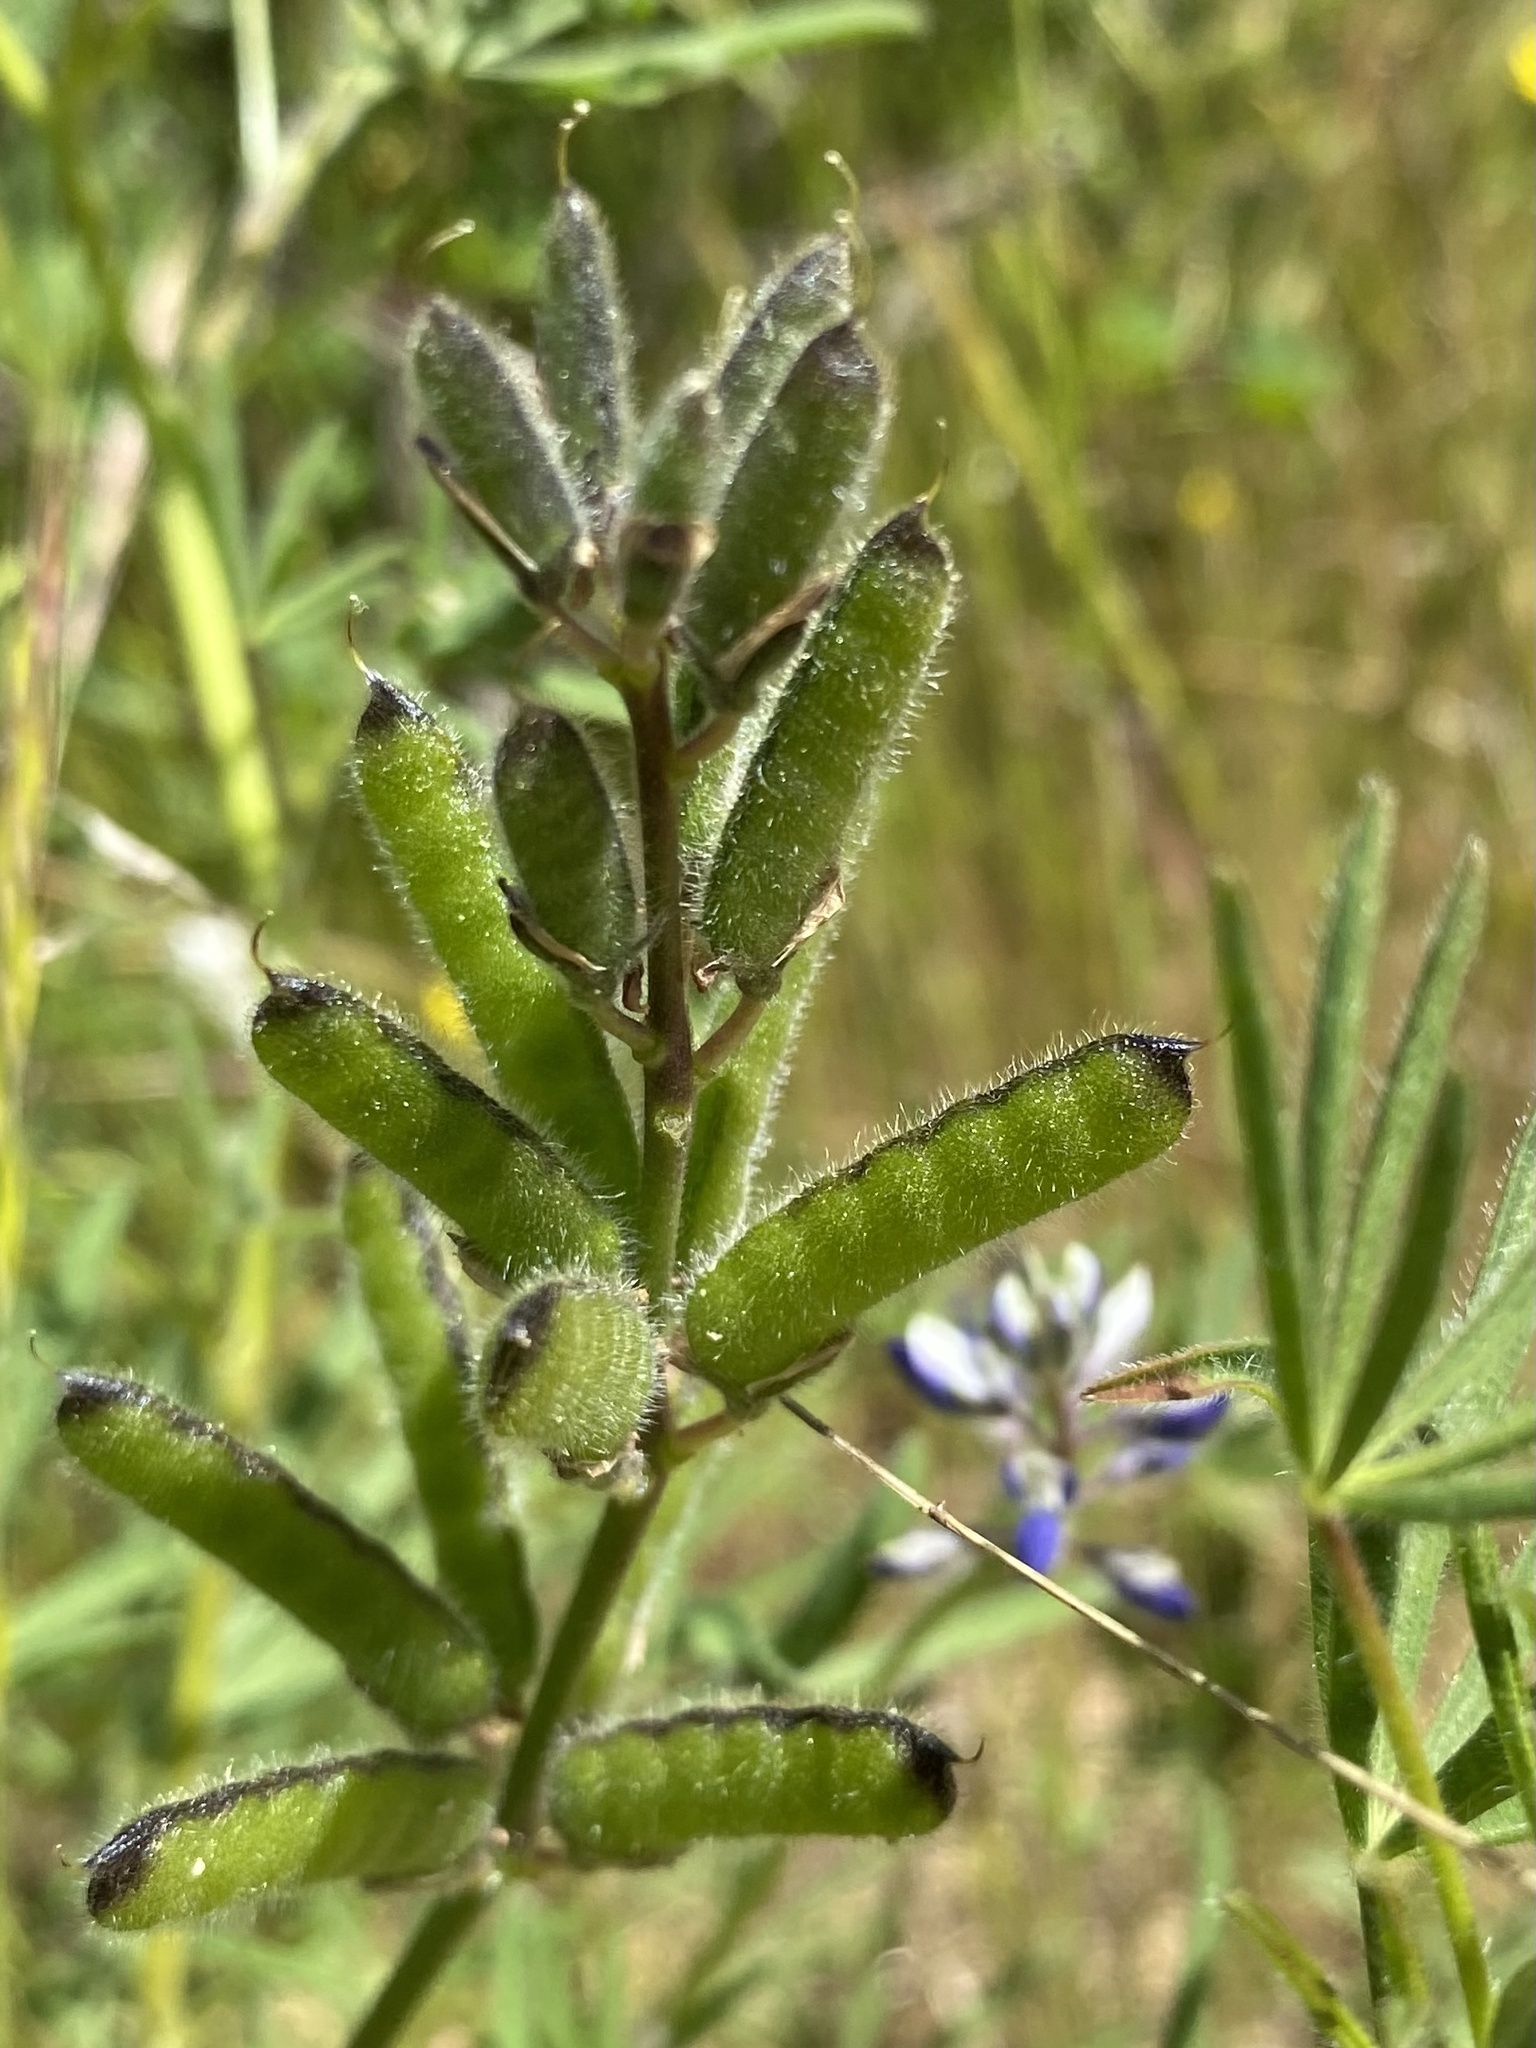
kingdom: Plantae
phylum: Tracheophyta
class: Magnoliopsida
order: Fabales
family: Fabaceae
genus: Lupinus
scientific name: Lupinus bicolor
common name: Miniature lupine
